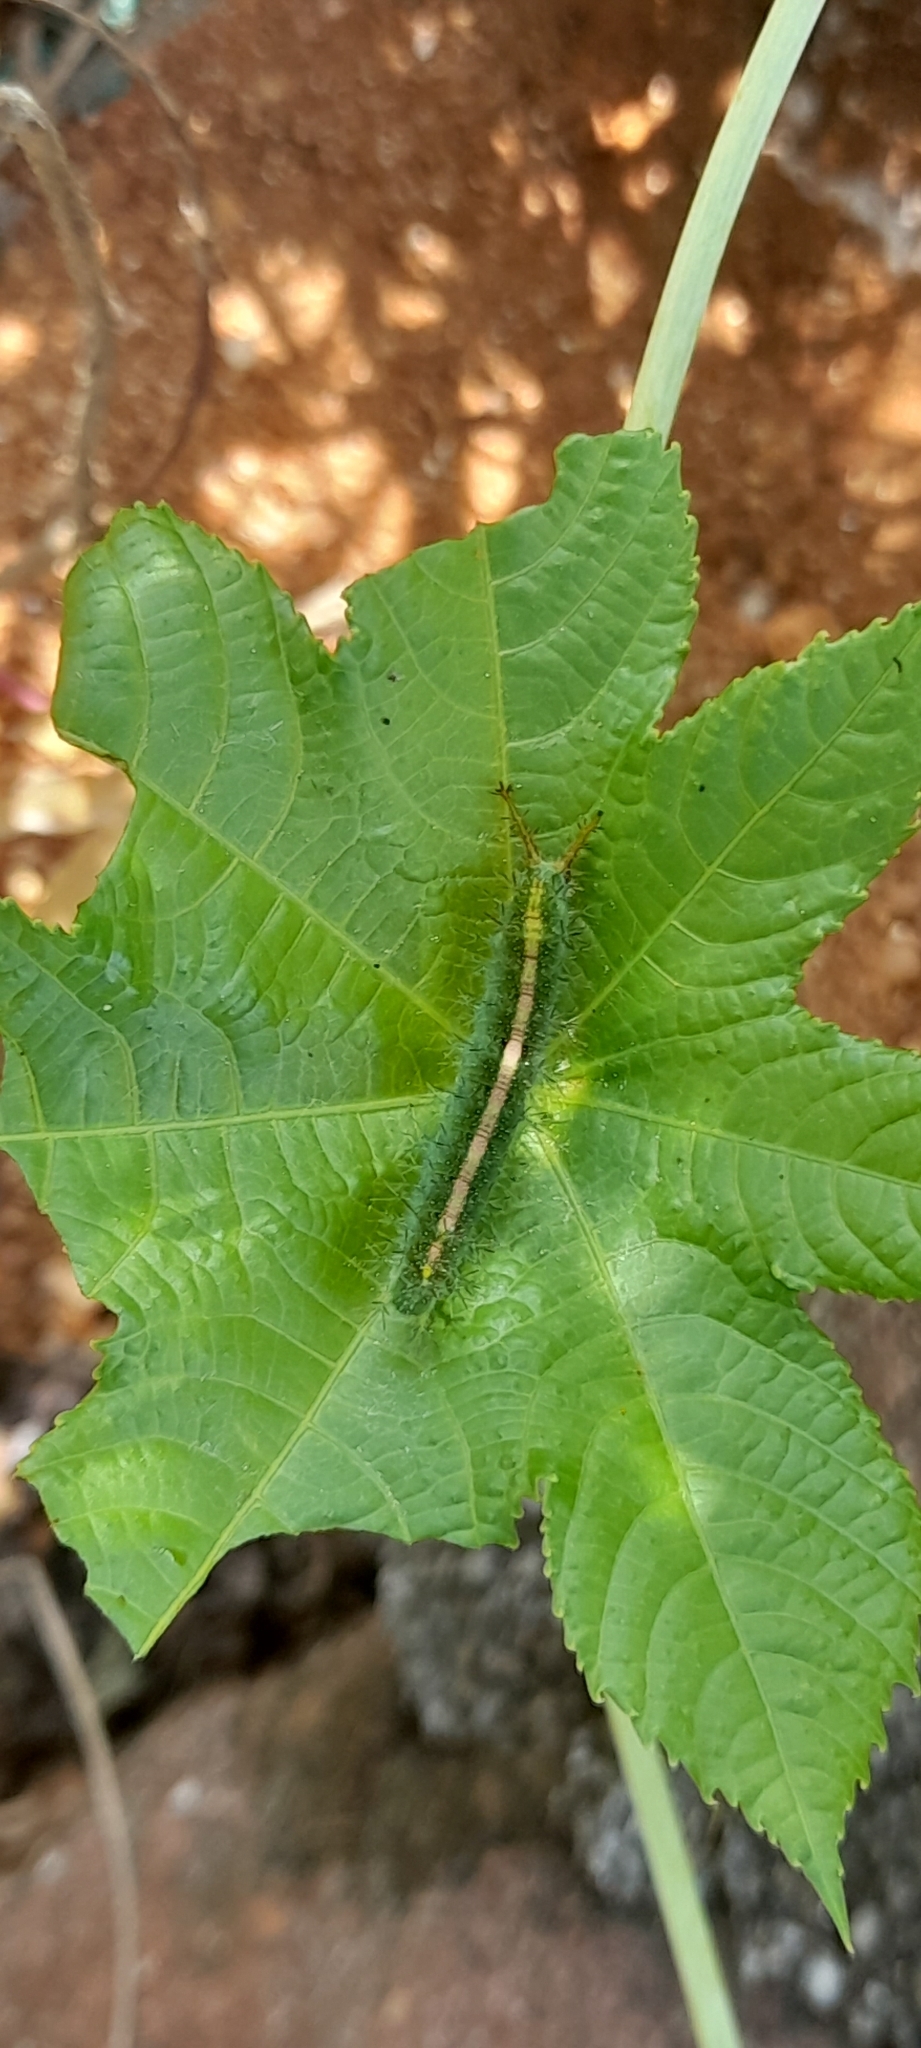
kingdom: Animalia
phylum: Arthropoda
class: Insecta
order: Lepidoptera
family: Nymphalidae
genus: Ariadne
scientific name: Ariadne merione
